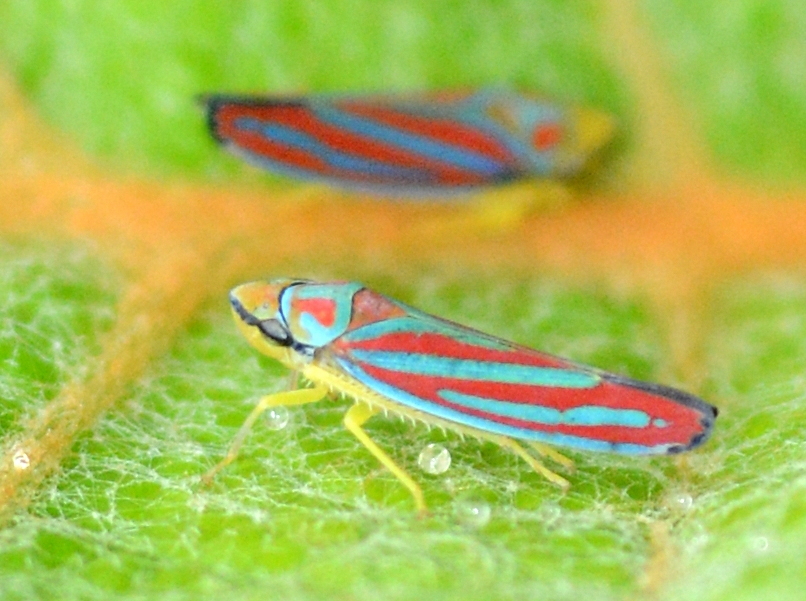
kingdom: Animalia
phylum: Arthropoda
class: Insecta
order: Hemiptera
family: Cicadellidae
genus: Graphocephala
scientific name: Graphocephala coccinea
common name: Candy-striped leafhopper
